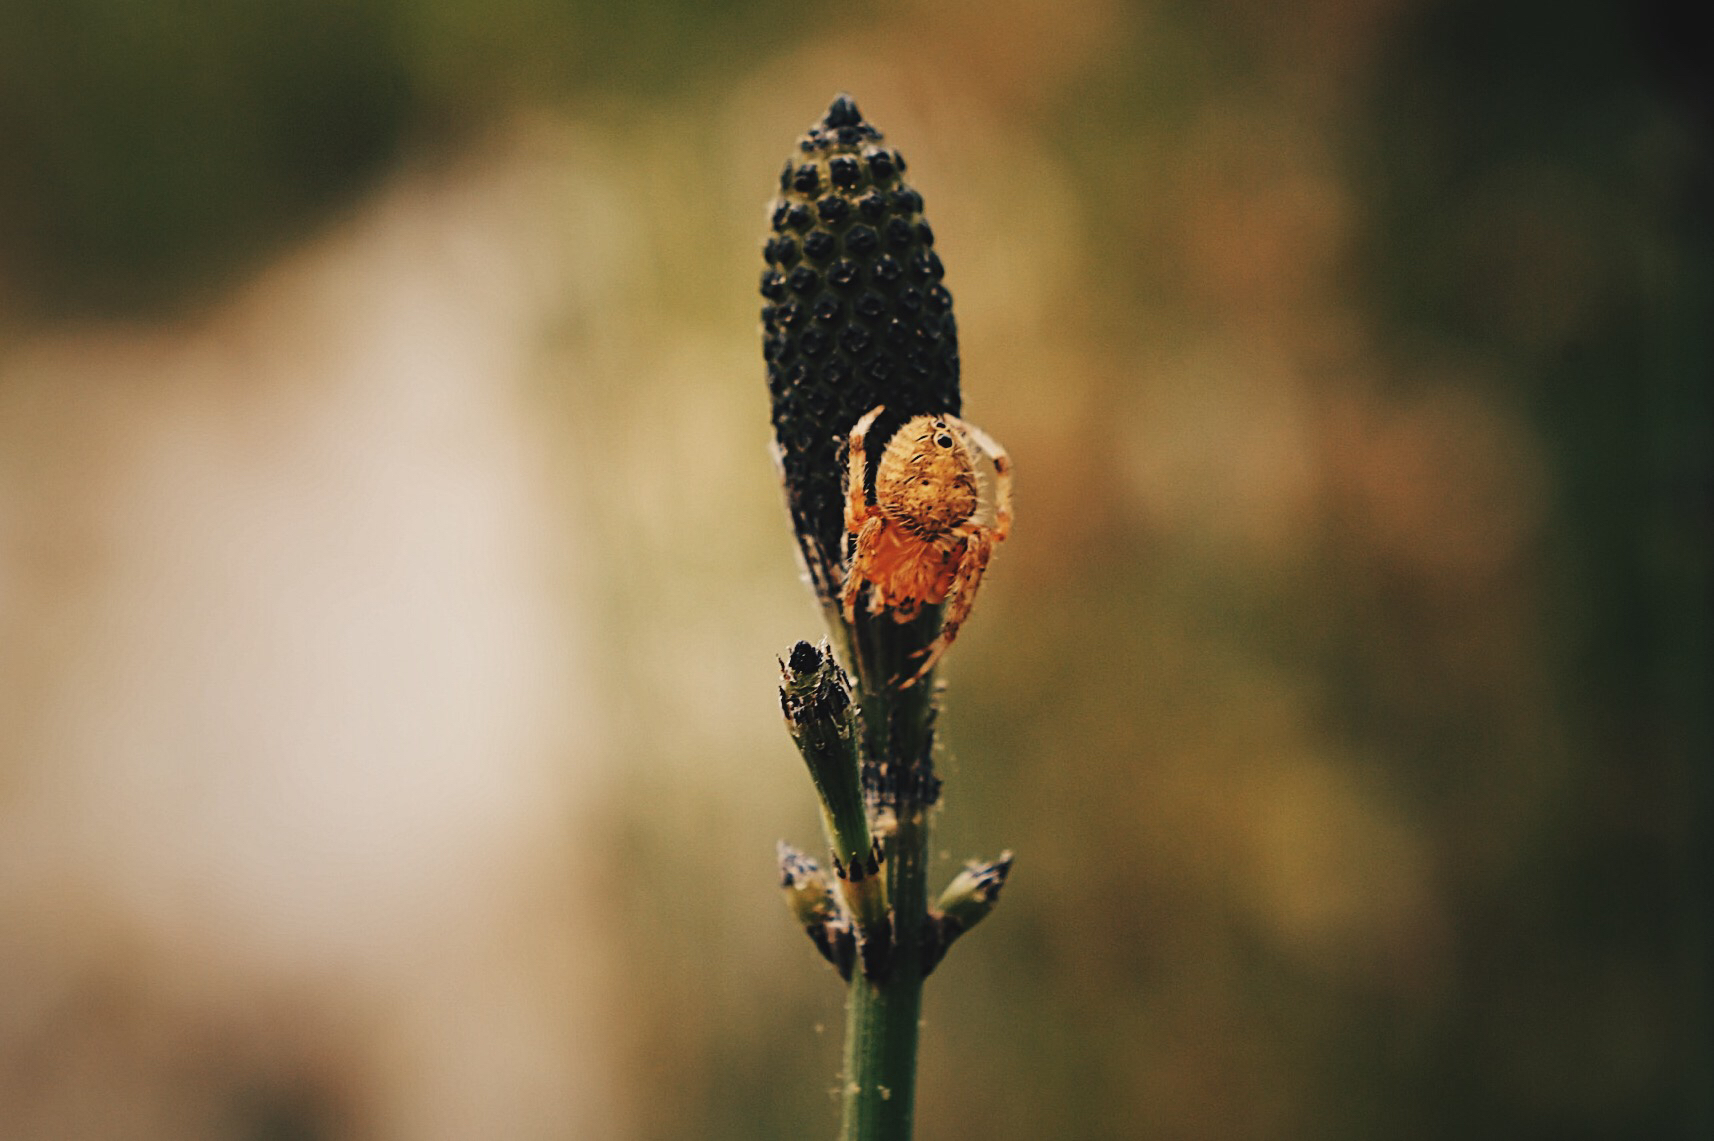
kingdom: Animalia
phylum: Arthropoda
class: Arachnida
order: Araneae
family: Araneidae
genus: Eriophora
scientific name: Eriophora ravilla
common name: Orb weavers
